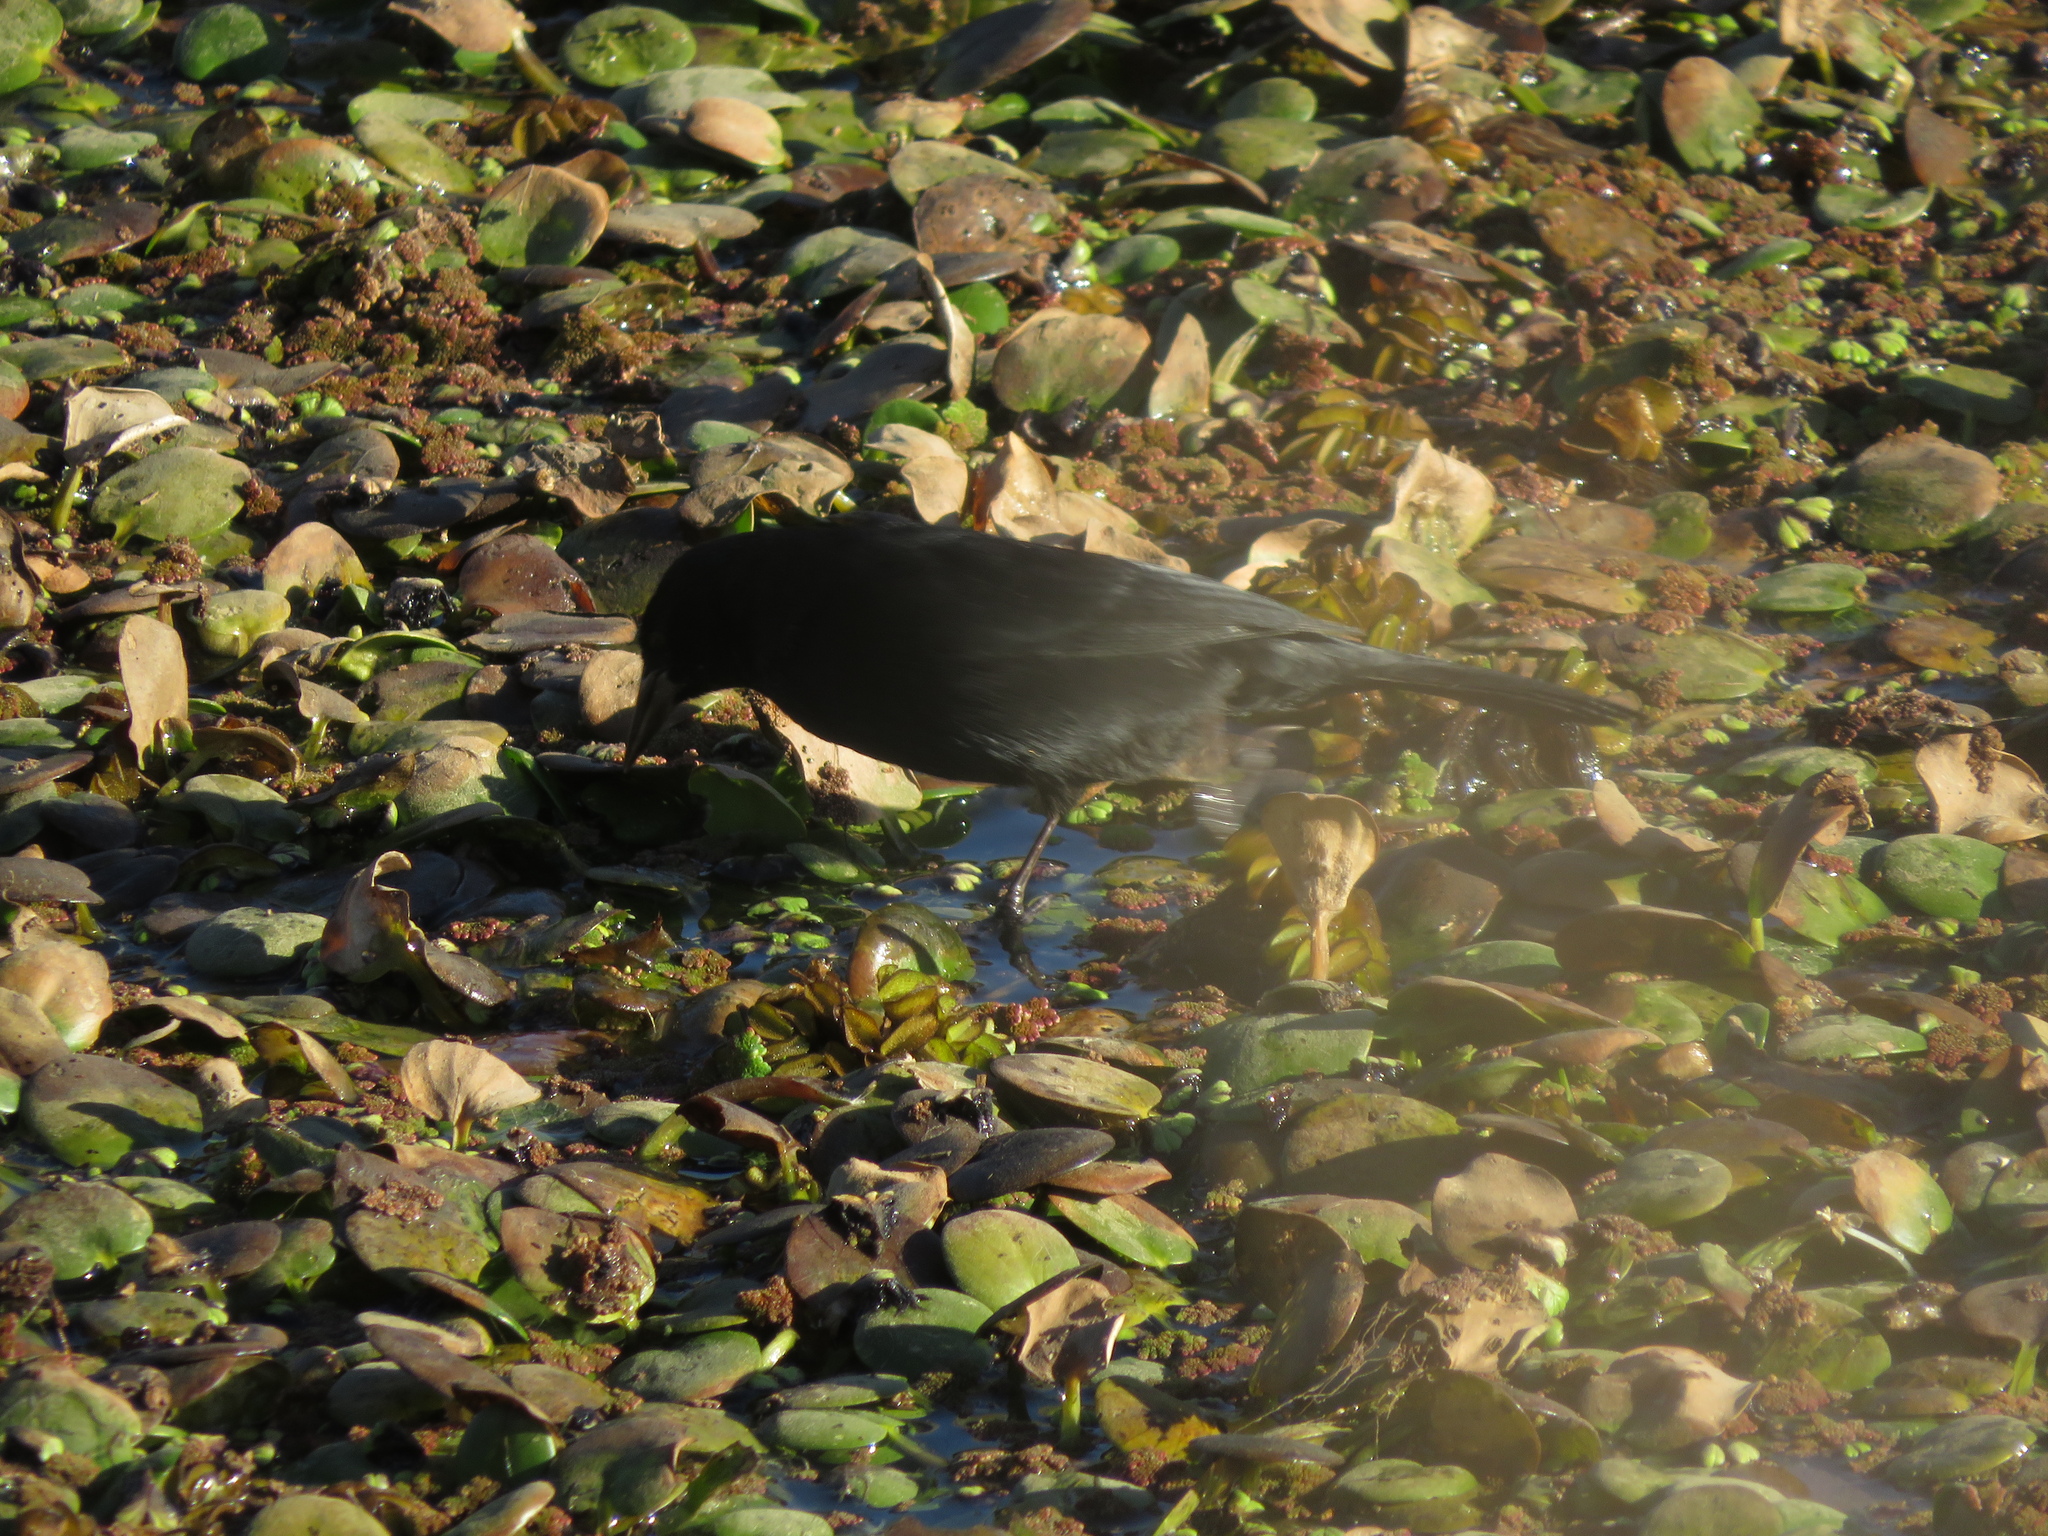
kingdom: Animalia
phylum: Chordata
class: Aves
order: Passeriformes
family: Icteridae
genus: Agelasticus
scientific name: Agelasticus cyanopus
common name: Unicolored blackbird
